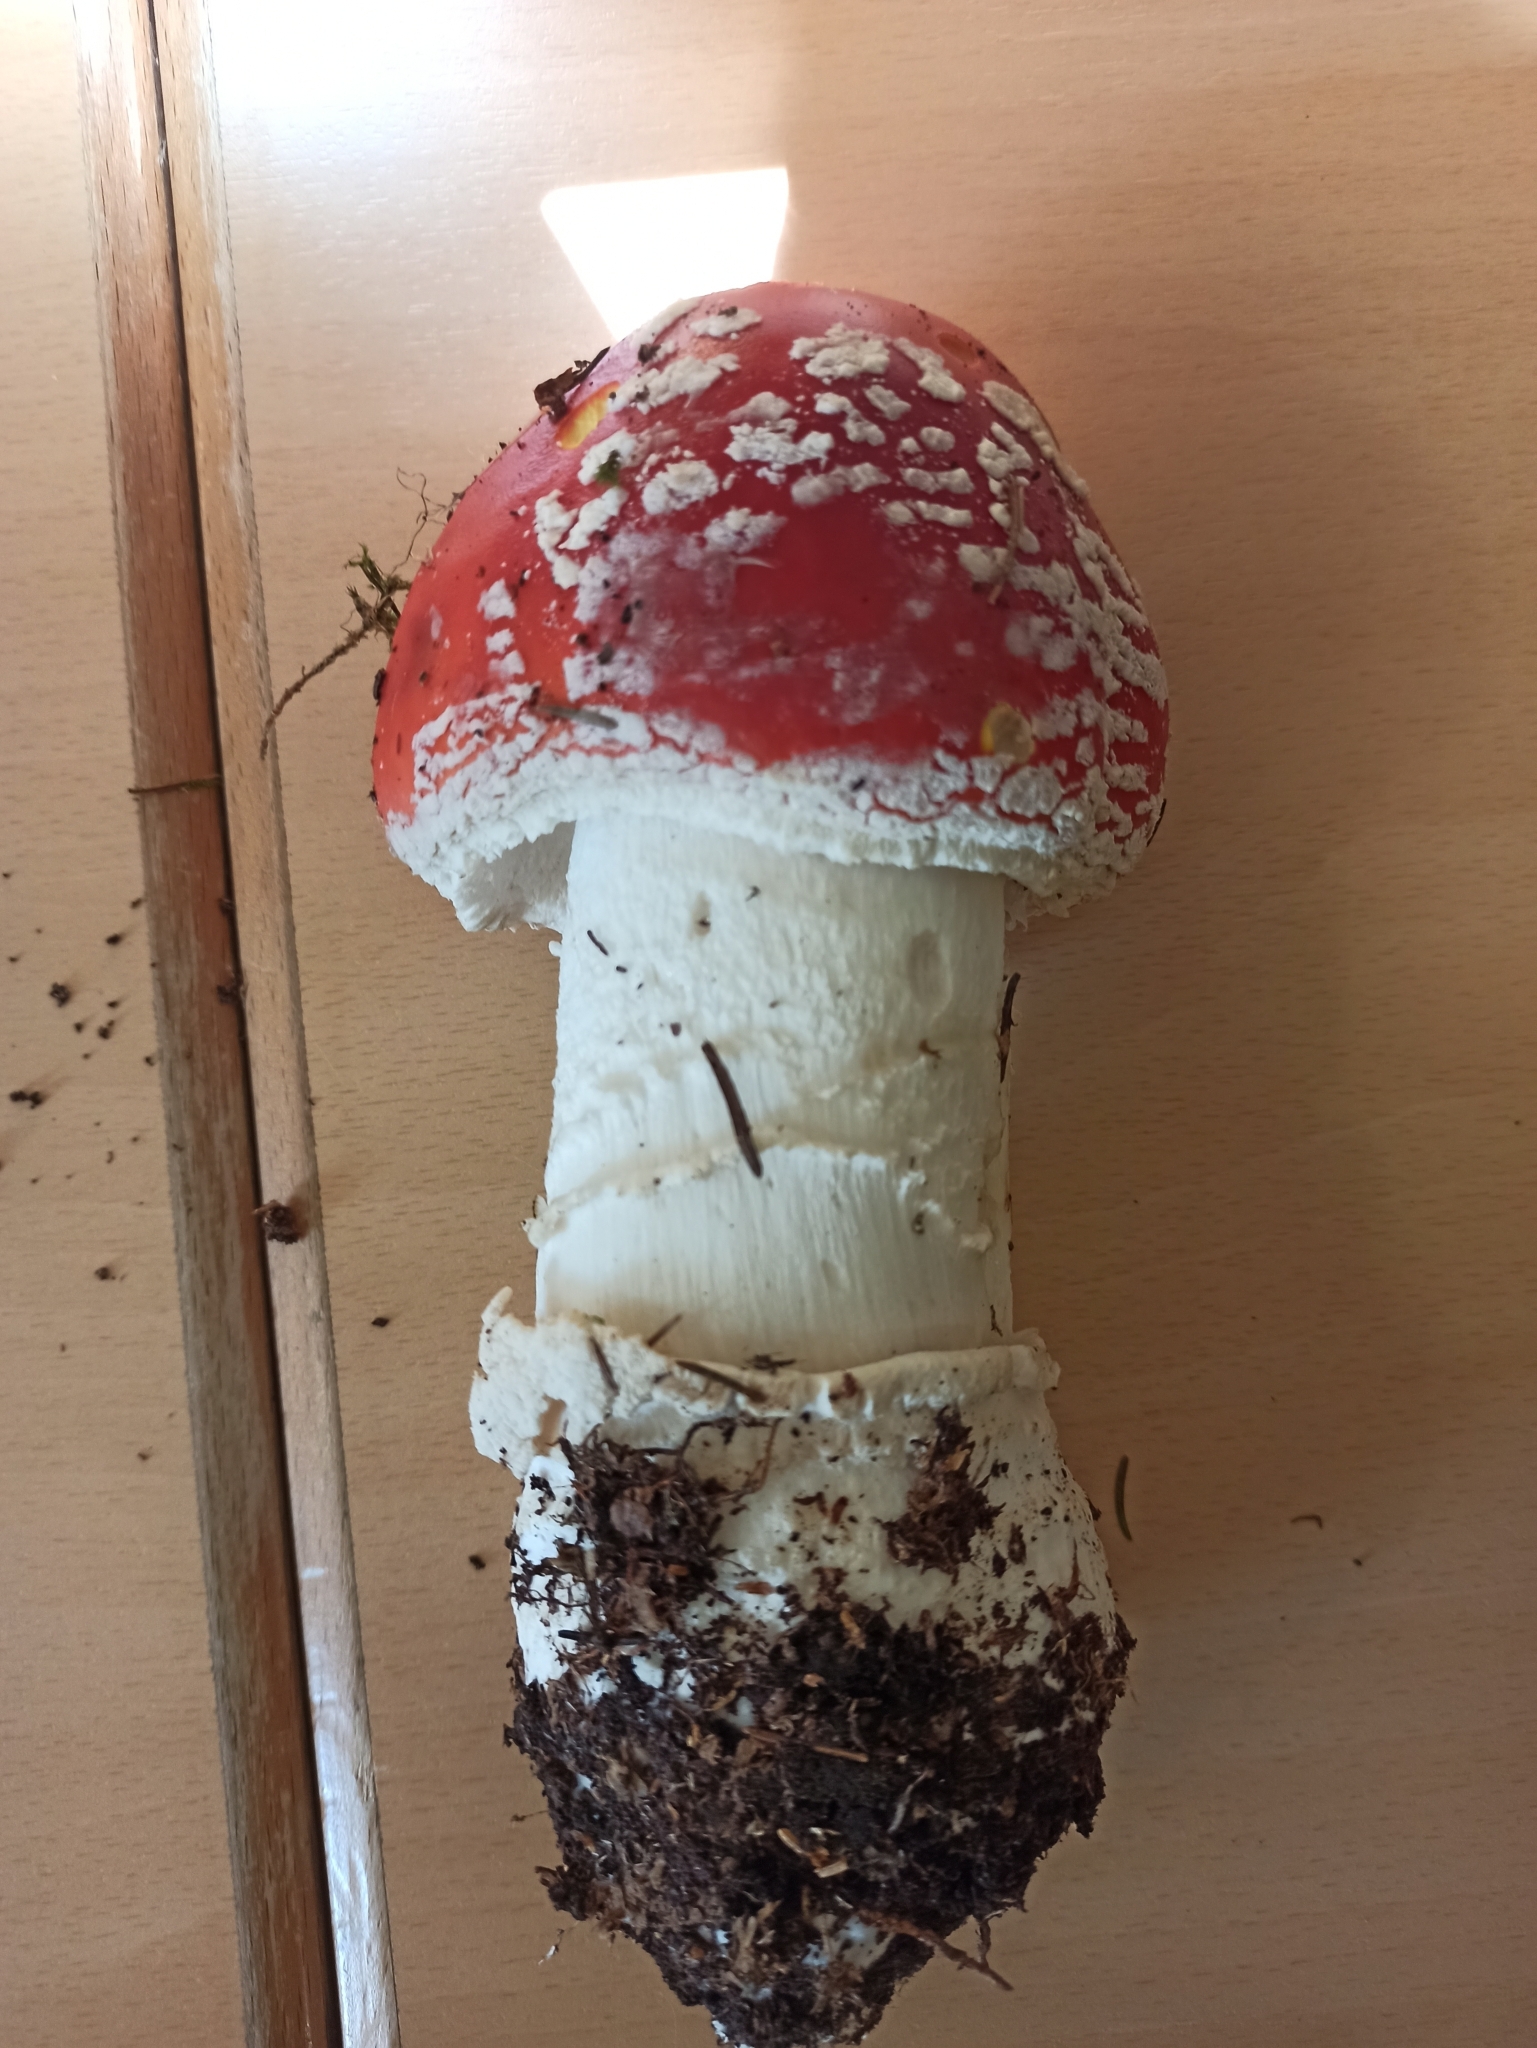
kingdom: Fungi
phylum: Basidiomycota
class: Agaricomycetes
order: Agaricales
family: Amanitaceae
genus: Amanita
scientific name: Amanita muscaria
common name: Fly agaric
